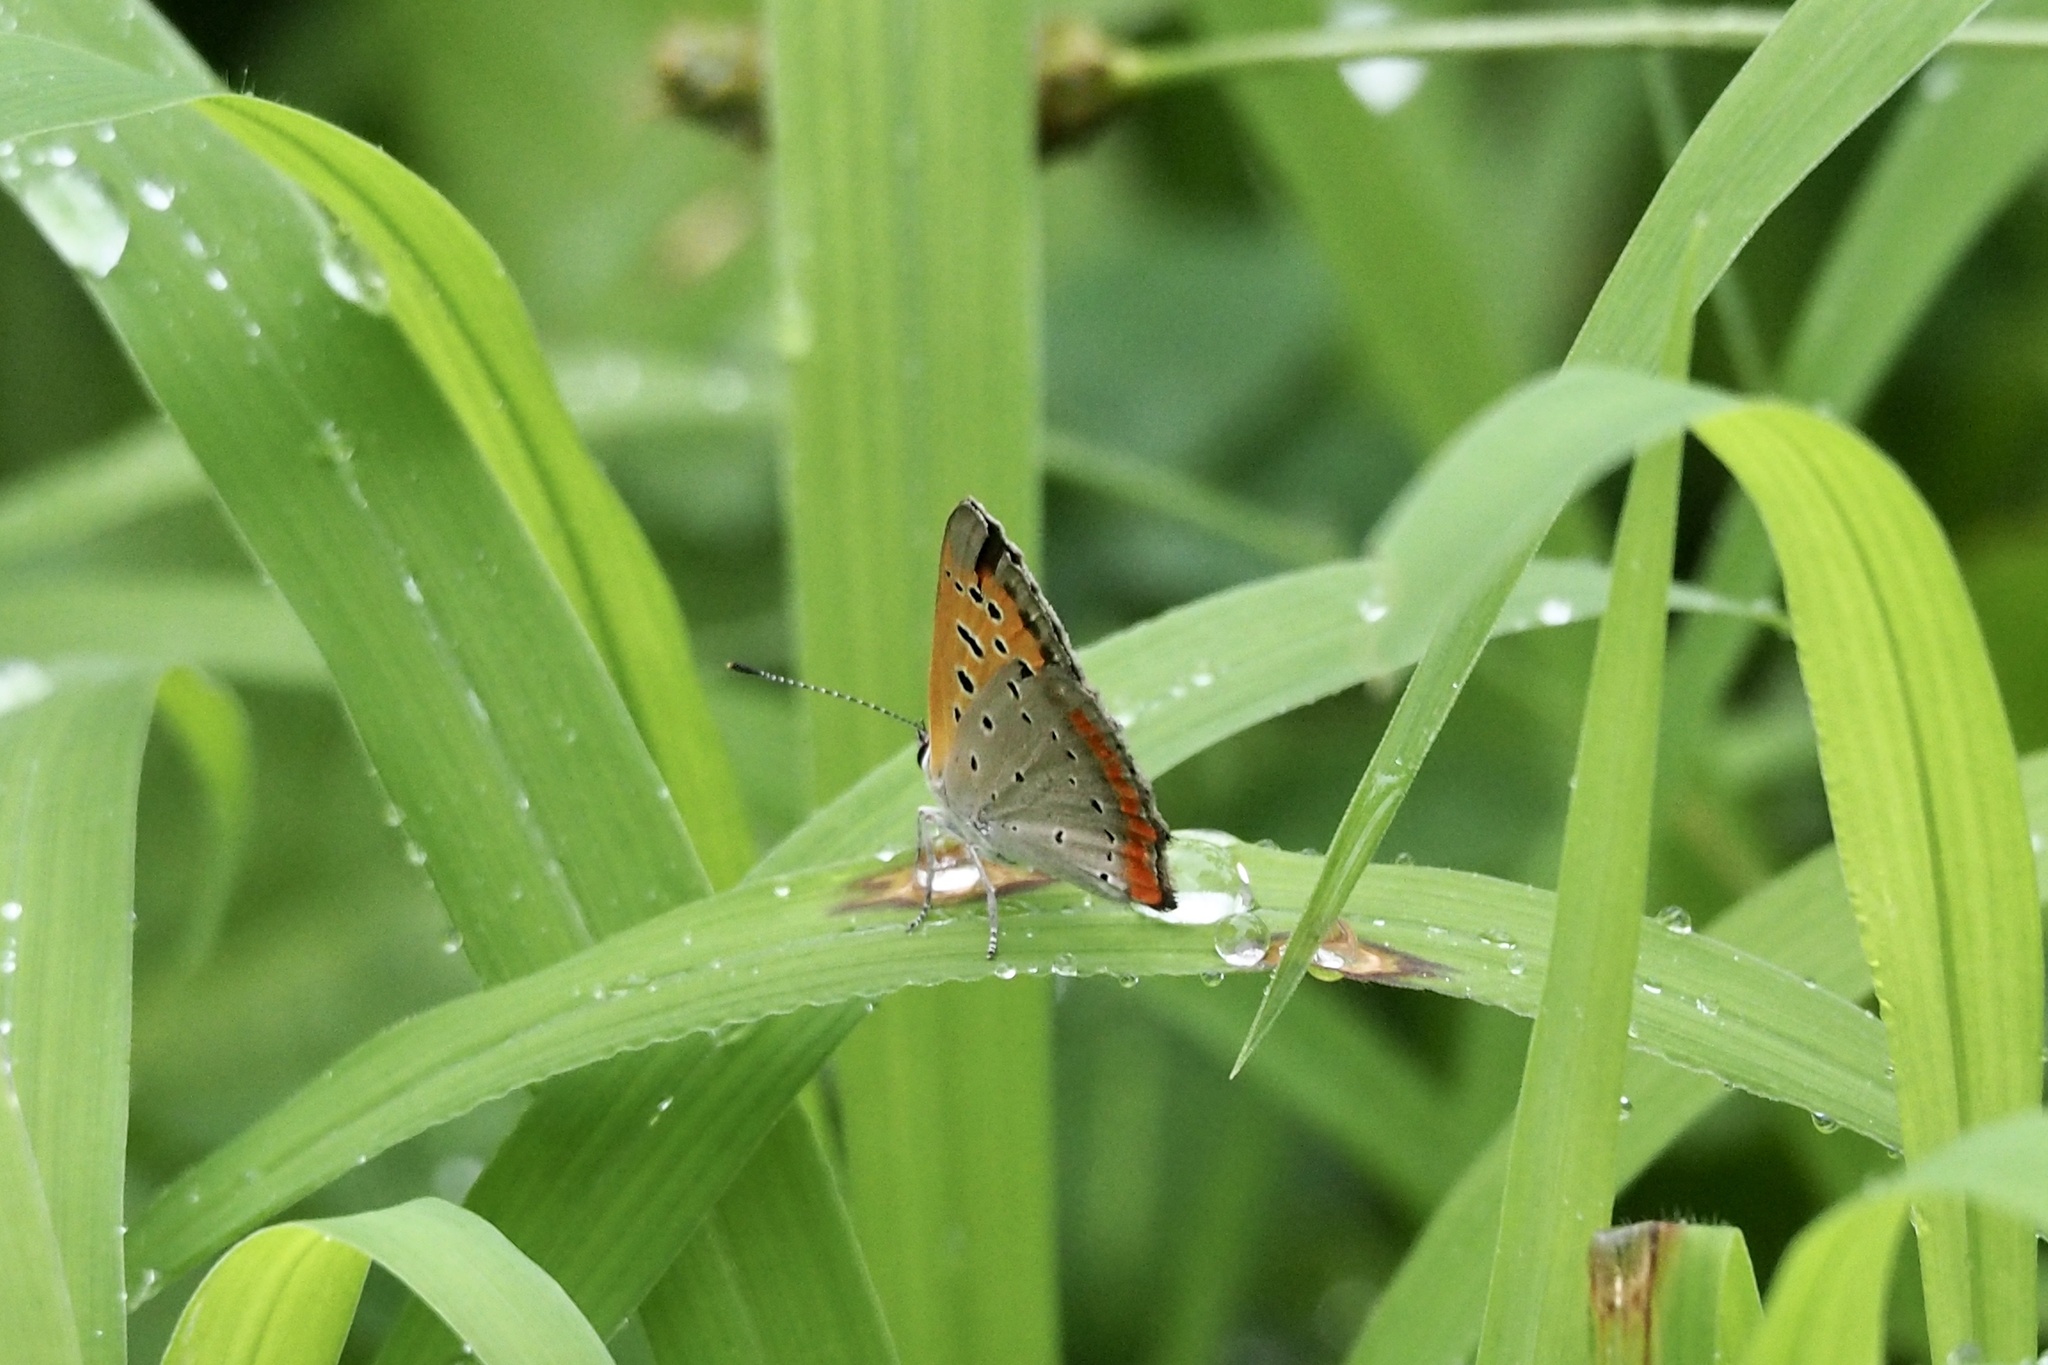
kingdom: Animalia
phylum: Arthropoda
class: Insecta
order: Lepidoptera
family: Lycaenidae
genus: Lycaena
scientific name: Lycaena phlaeas
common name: Small copper
